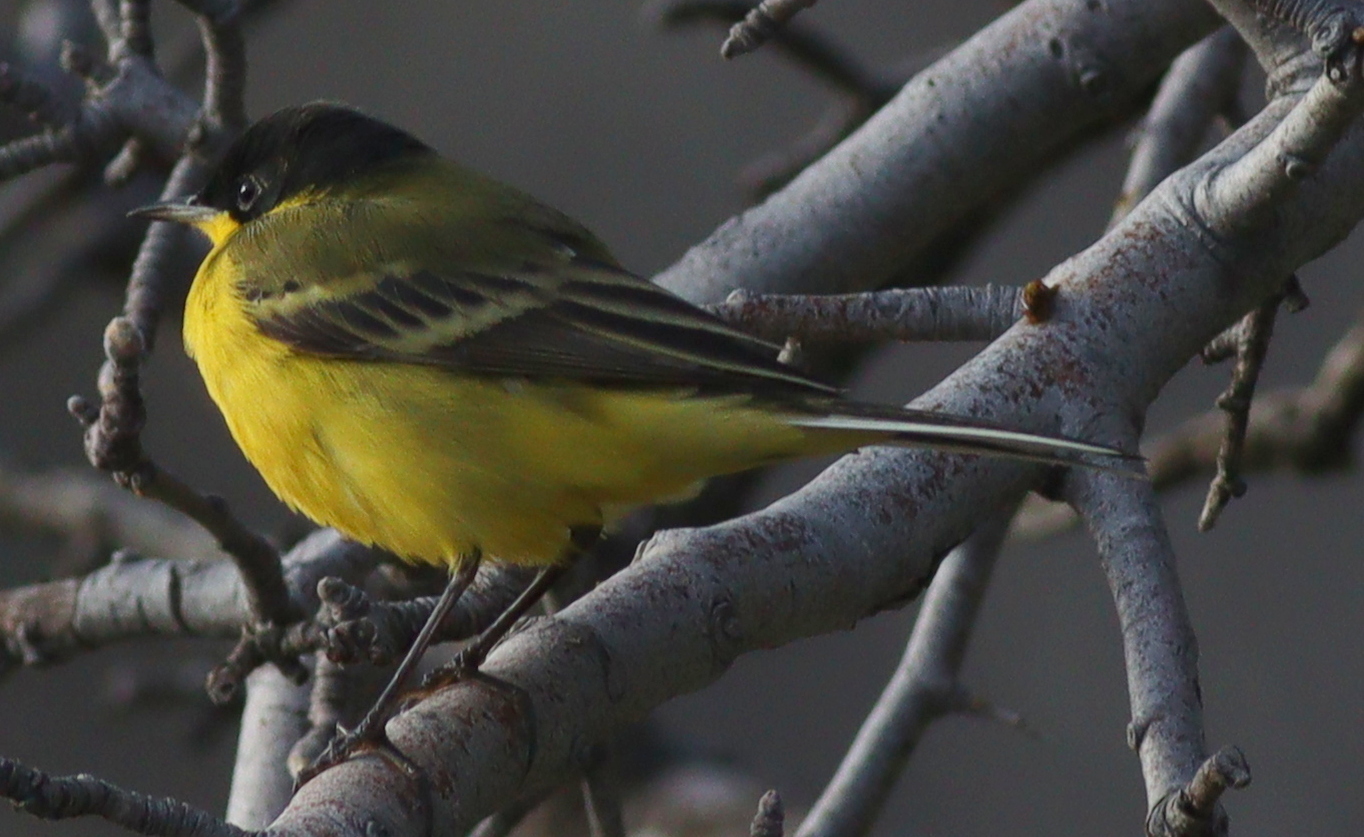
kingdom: Animalia
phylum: Chordata
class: Aves
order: Passeriformes
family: Motacillidae
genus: Motacilla
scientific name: Motacilla flava
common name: Western yellow wagtail
